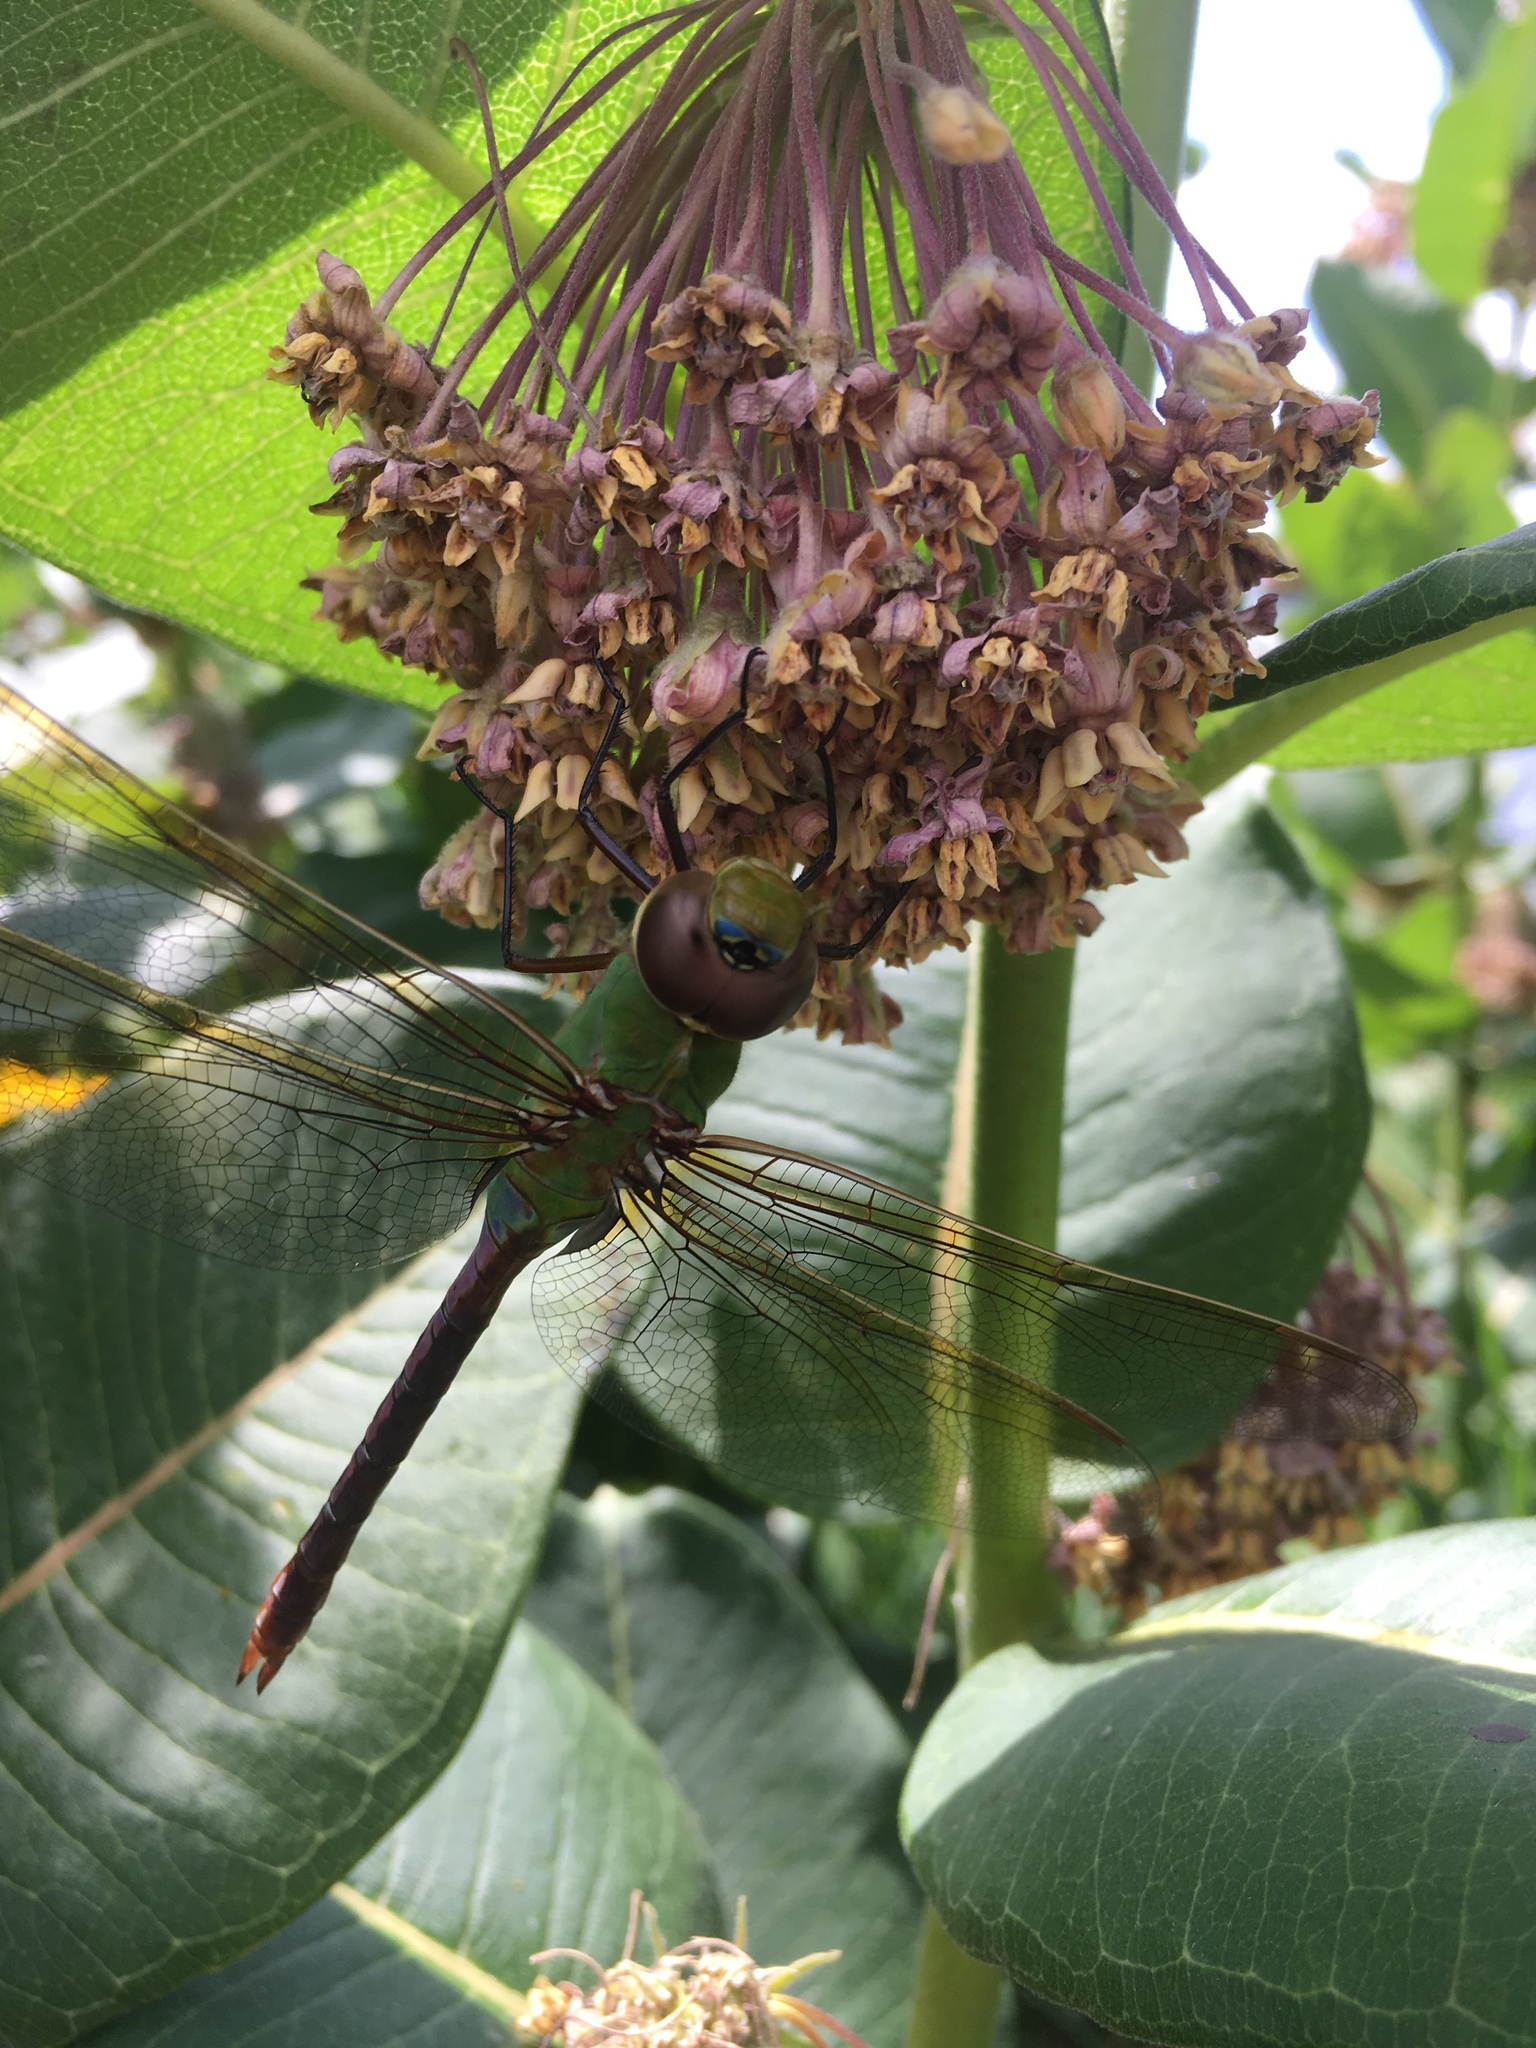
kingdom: Animalia
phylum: Arthropoda
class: Insecta
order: Odonata
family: Aeshnidae
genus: Anax
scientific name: Anax junius
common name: Common green darner
